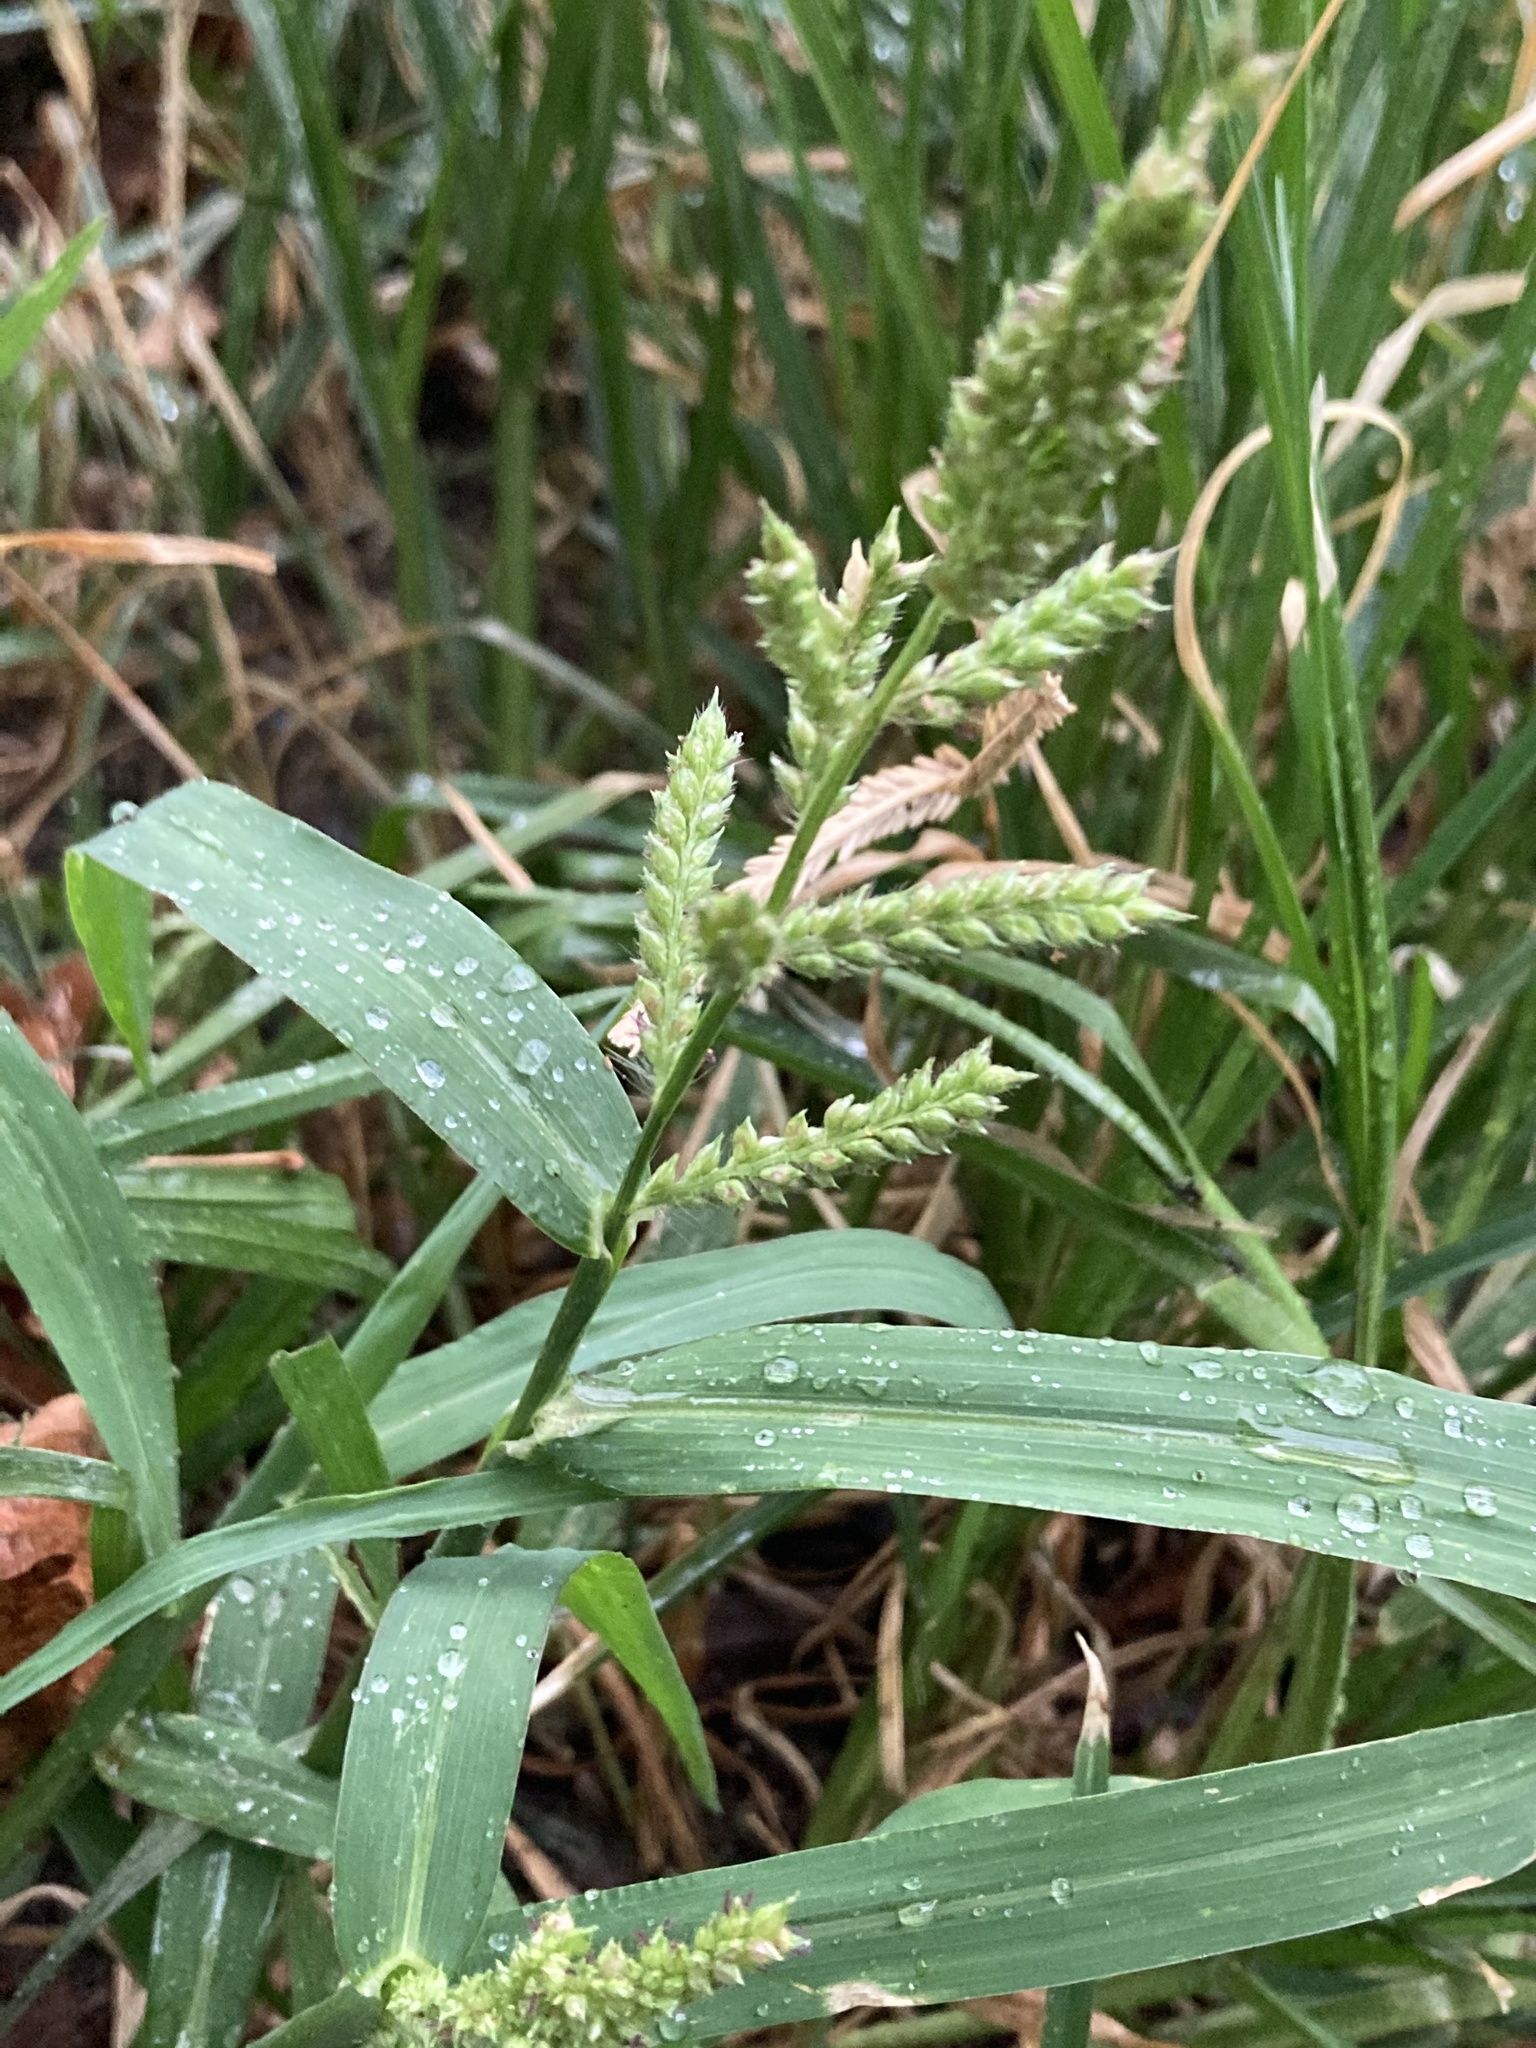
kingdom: Plantae
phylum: Tracheophyta
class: Liliopsida
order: Poales
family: Poaceae
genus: Echinochloa
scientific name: Echinochloa crus-galli
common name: Cockspur
